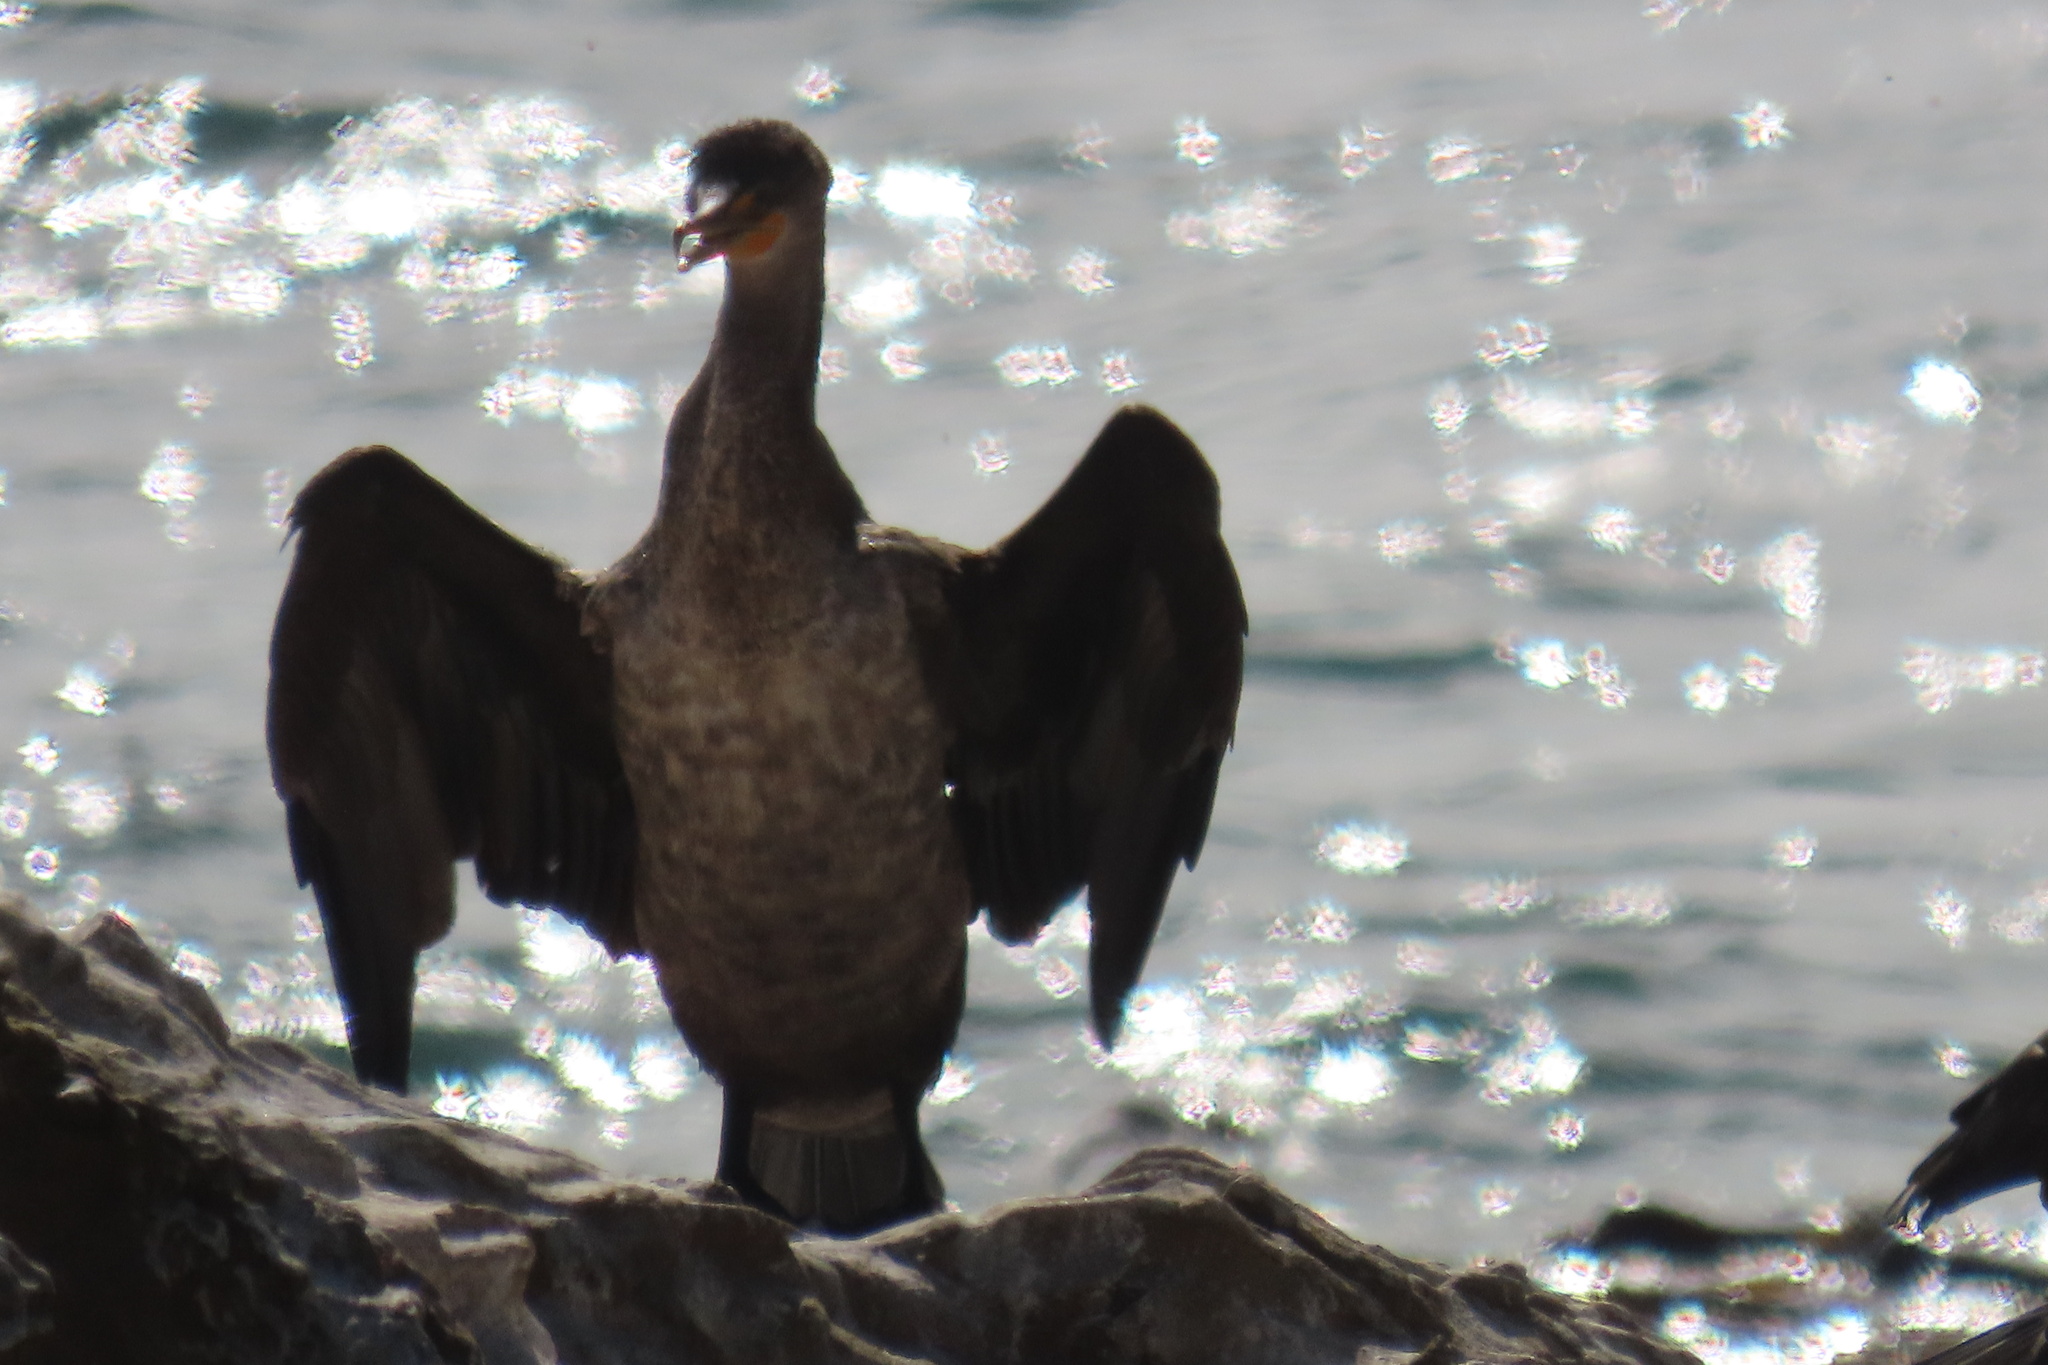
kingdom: Animalia
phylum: Chordata
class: Aves
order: Suliformes
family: Phalacrocoracidae
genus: Phalacrocorax
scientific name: Phalacrocorax auritus
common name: Double-crested cormorant
